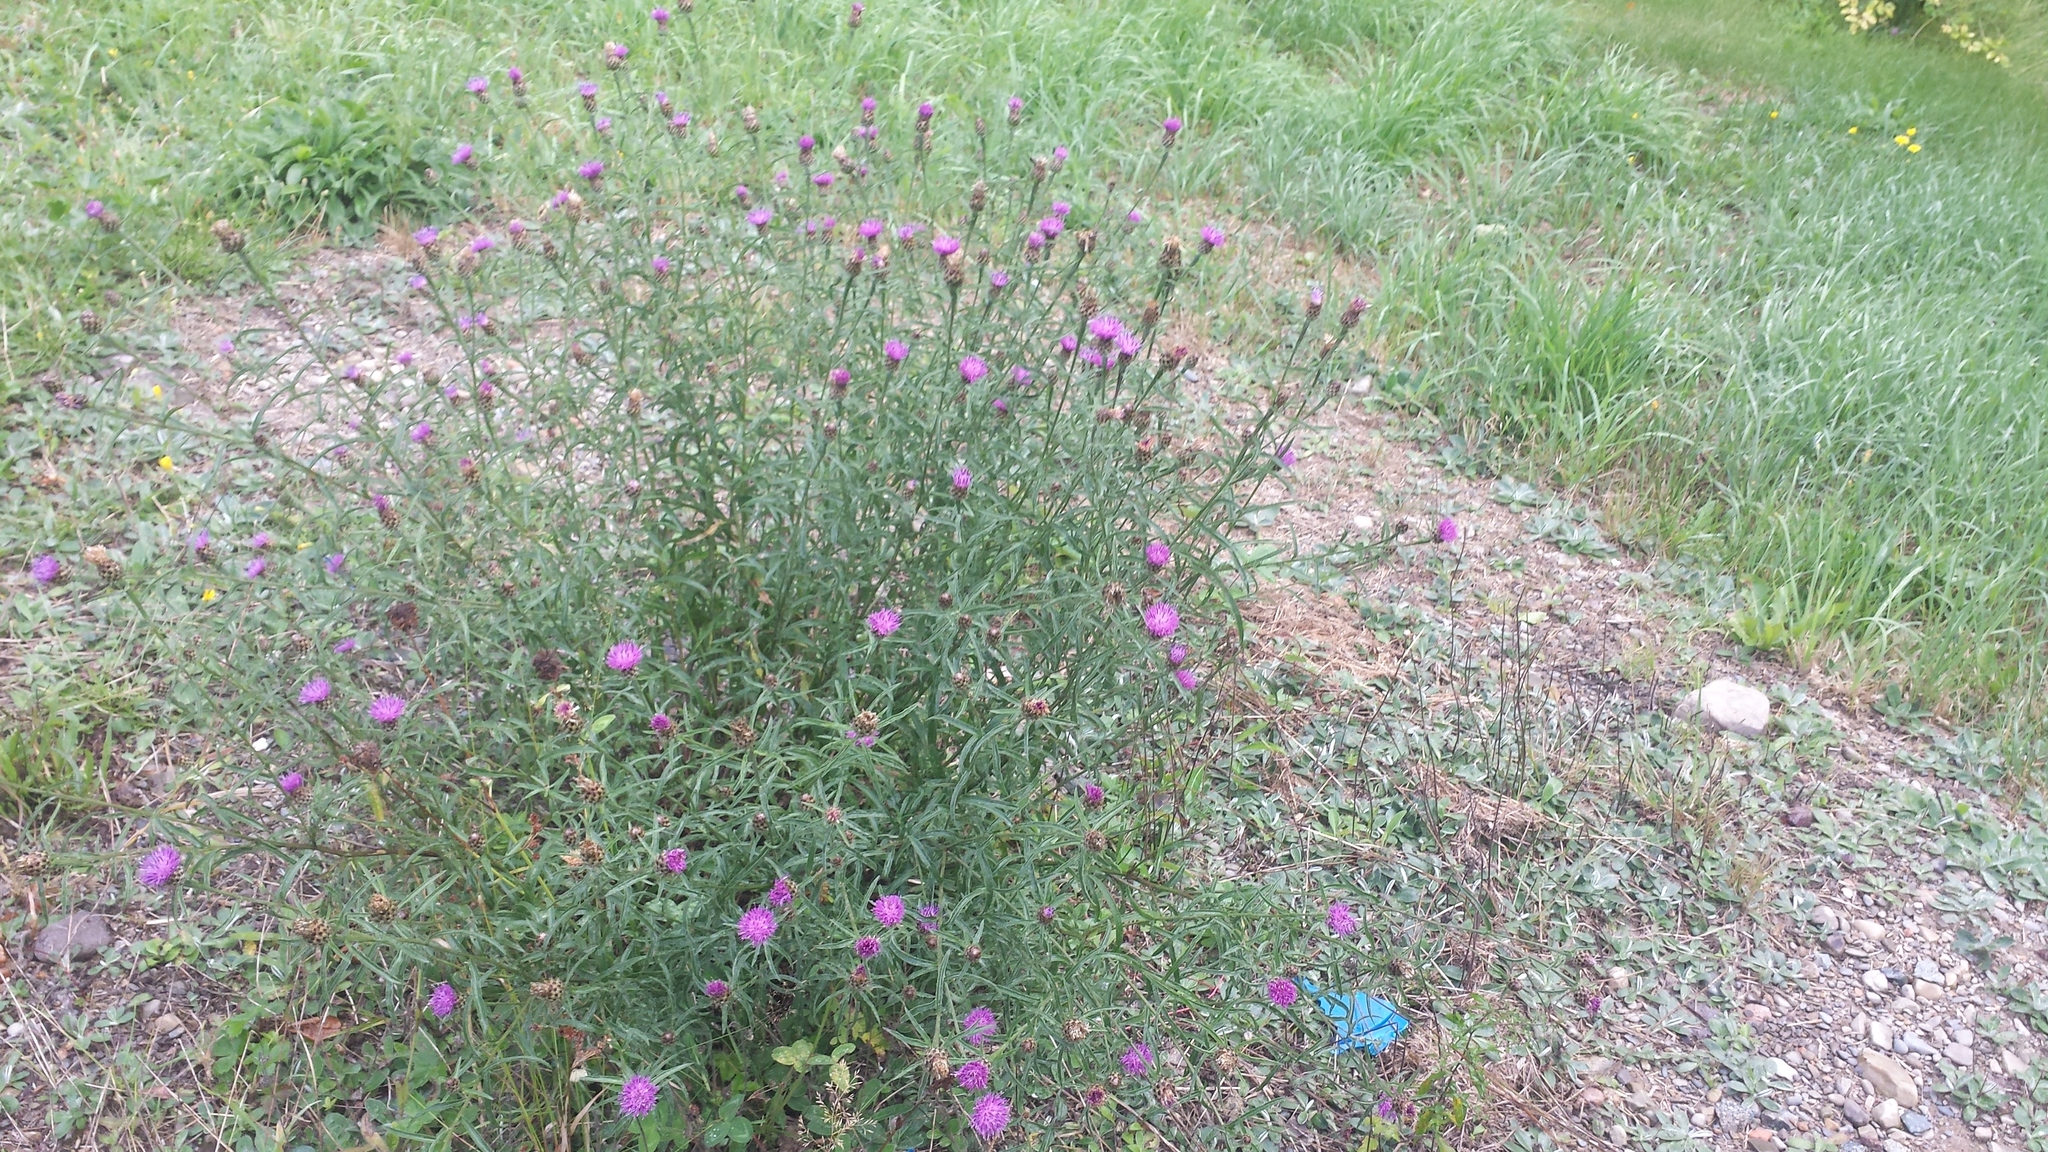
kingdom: Plantae
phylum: Tracheophyta
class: Magnoliopsida
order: Asterales
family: Asteraceae
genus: Centaurea
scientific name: Centaurea nigra
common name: Lesser knapweed
